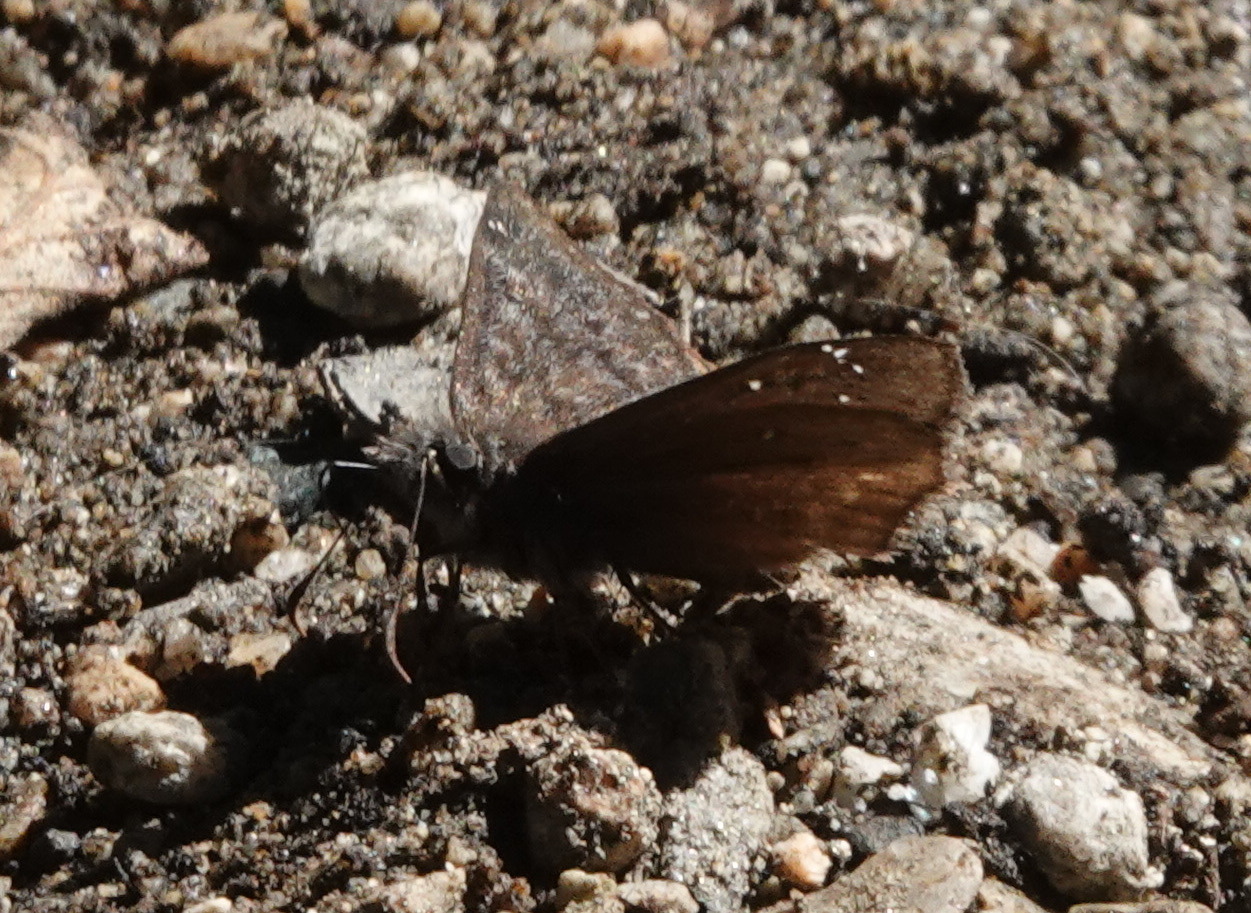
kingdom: Animalia
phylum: Arthropoda
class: Insecta
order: Lepidoptera
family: Hesperiidae
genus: Erynnis
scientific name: Erynnis propertius
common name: Propertius duskywing
